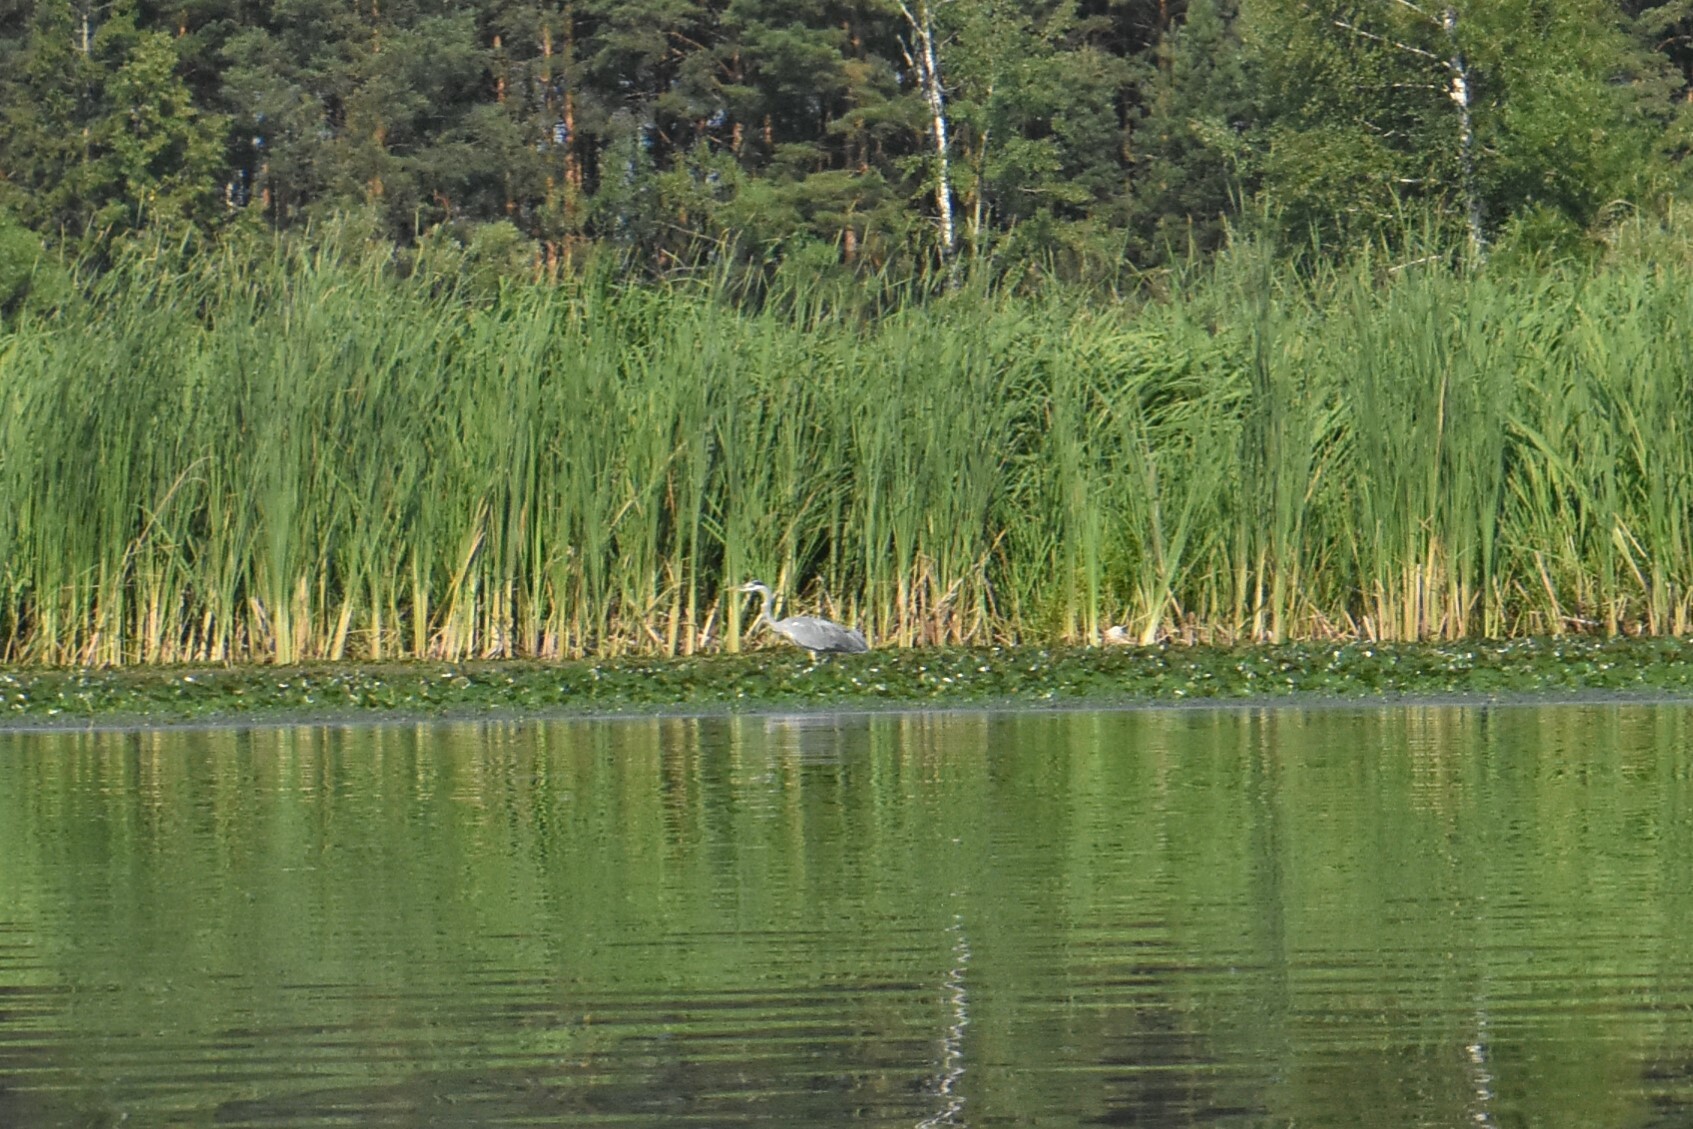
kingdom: Animalia
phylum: Chordata
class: Aves
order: Pelecaniformes
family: Ardeidae
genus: Ardea
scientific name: Ardea cinerea
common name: Grey heron
